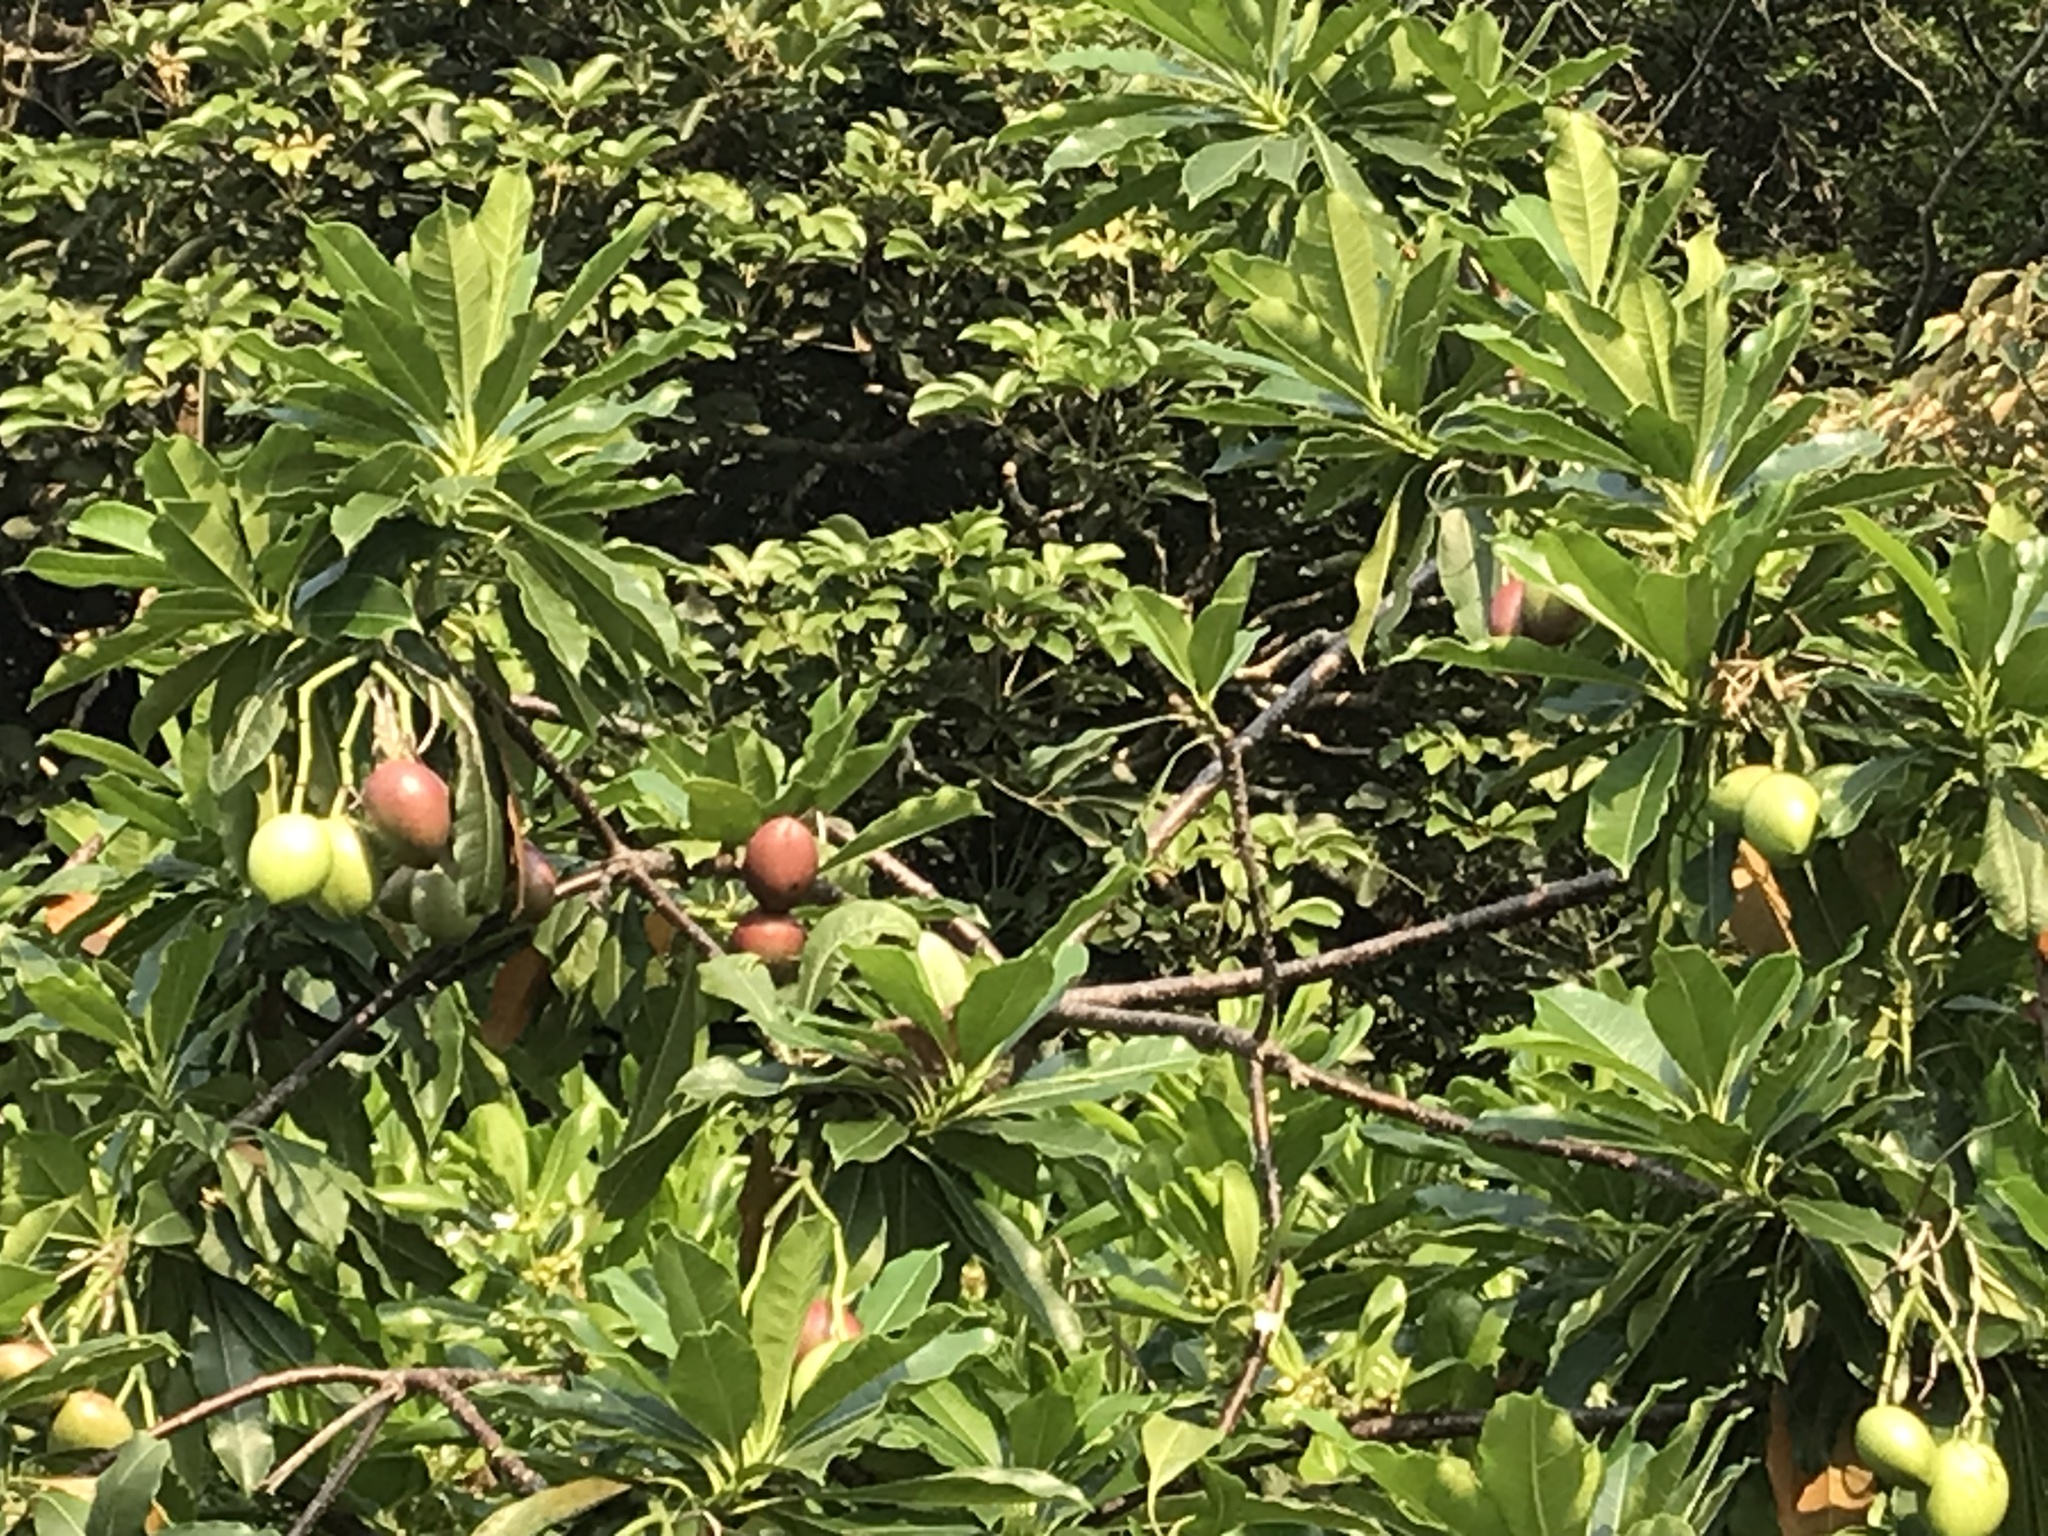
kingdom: Plantae
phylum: Tracheophyta
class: Magnoliopsida
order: Gentianales
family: Apocynaceae
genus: Cerbera
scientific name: Cerbera manghas
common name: Reva
